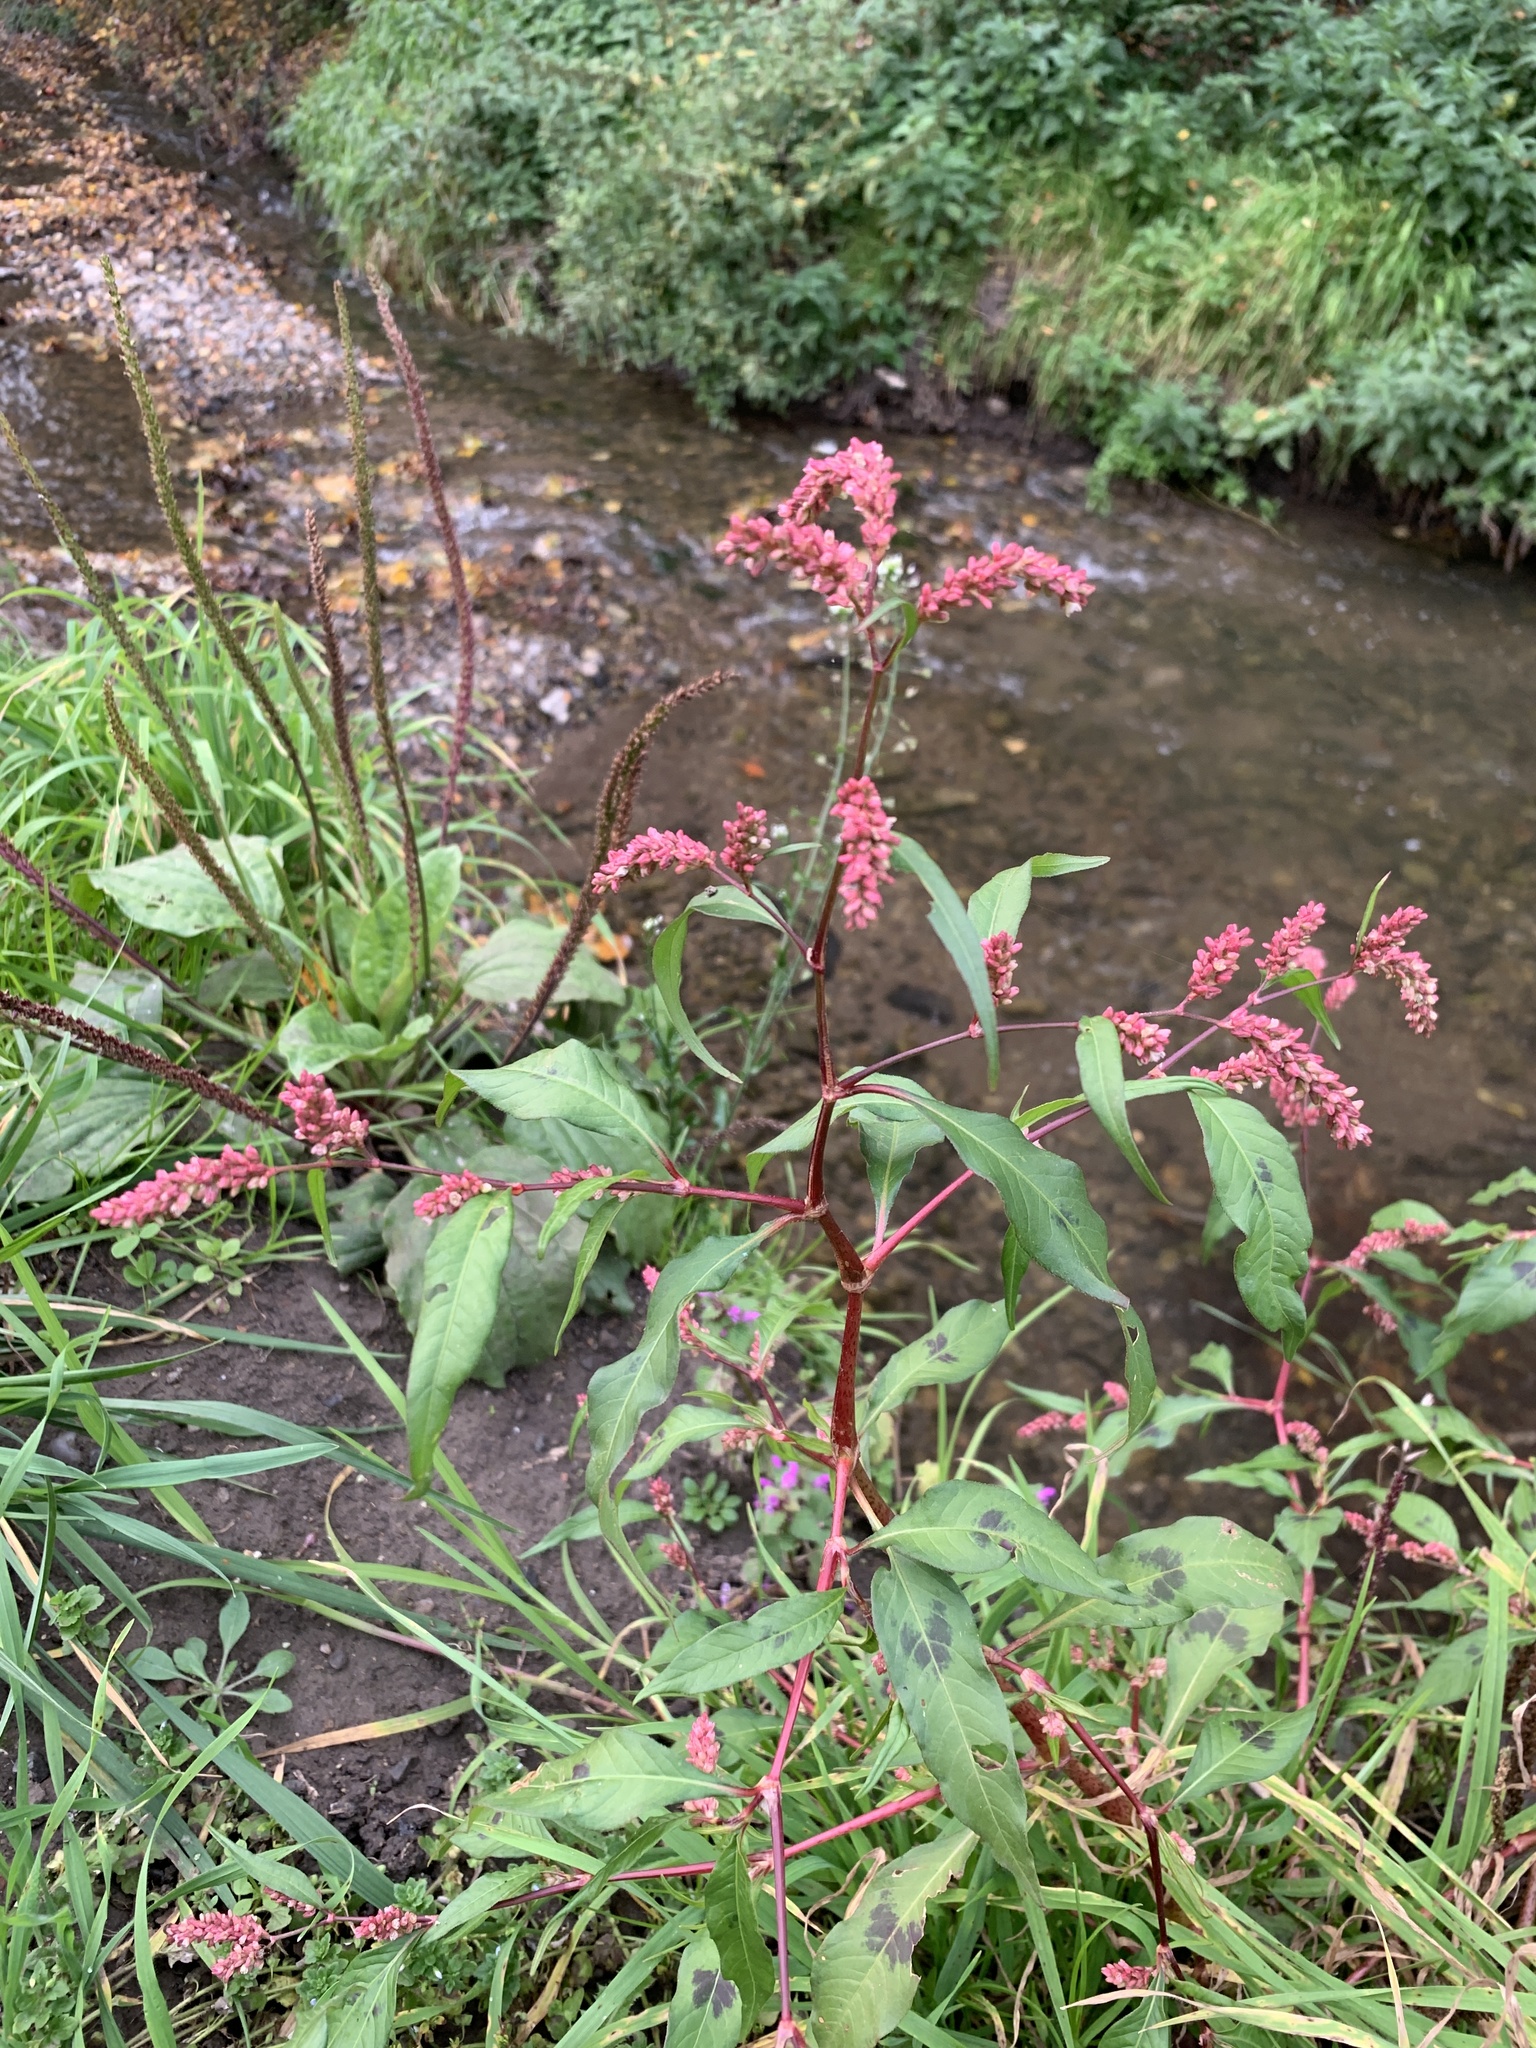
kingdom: Plantae
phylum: Tracheophyta
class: Magnoliopsida
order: Caryophyllales
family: Polygonaceae
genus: Persicaria
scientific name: Persicaria lapathifolia
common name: Curlytop knotweed
